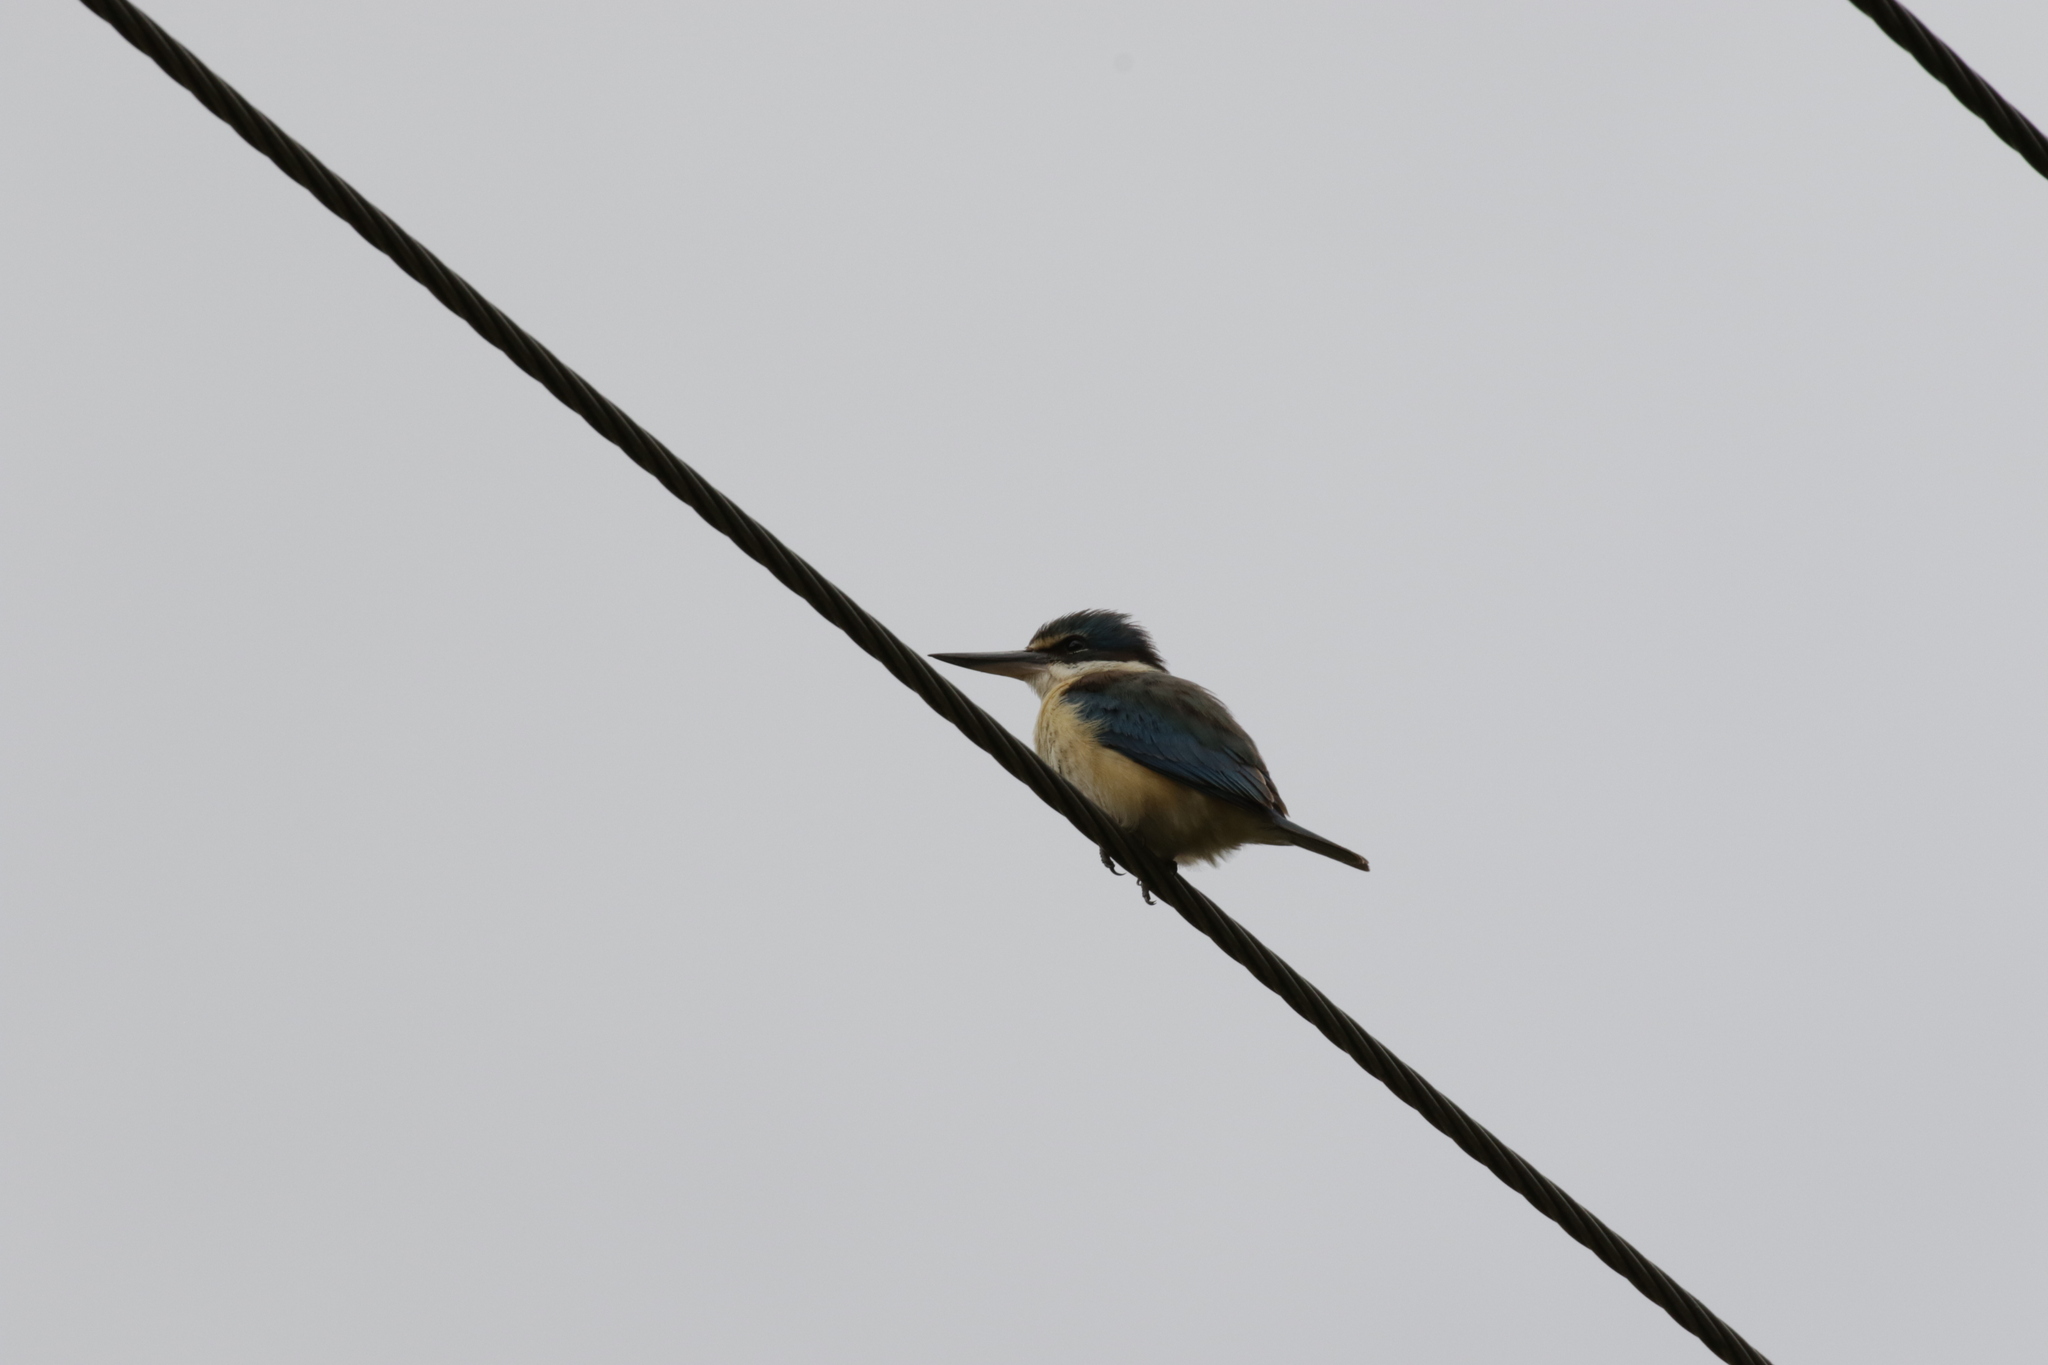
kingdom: Animalia
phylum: Chordata
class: Aves
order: Coraciiformes
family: Alcedinidae
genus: Todiramphus
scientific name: Todiramphus sanctus
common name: Sacred kingfisher
